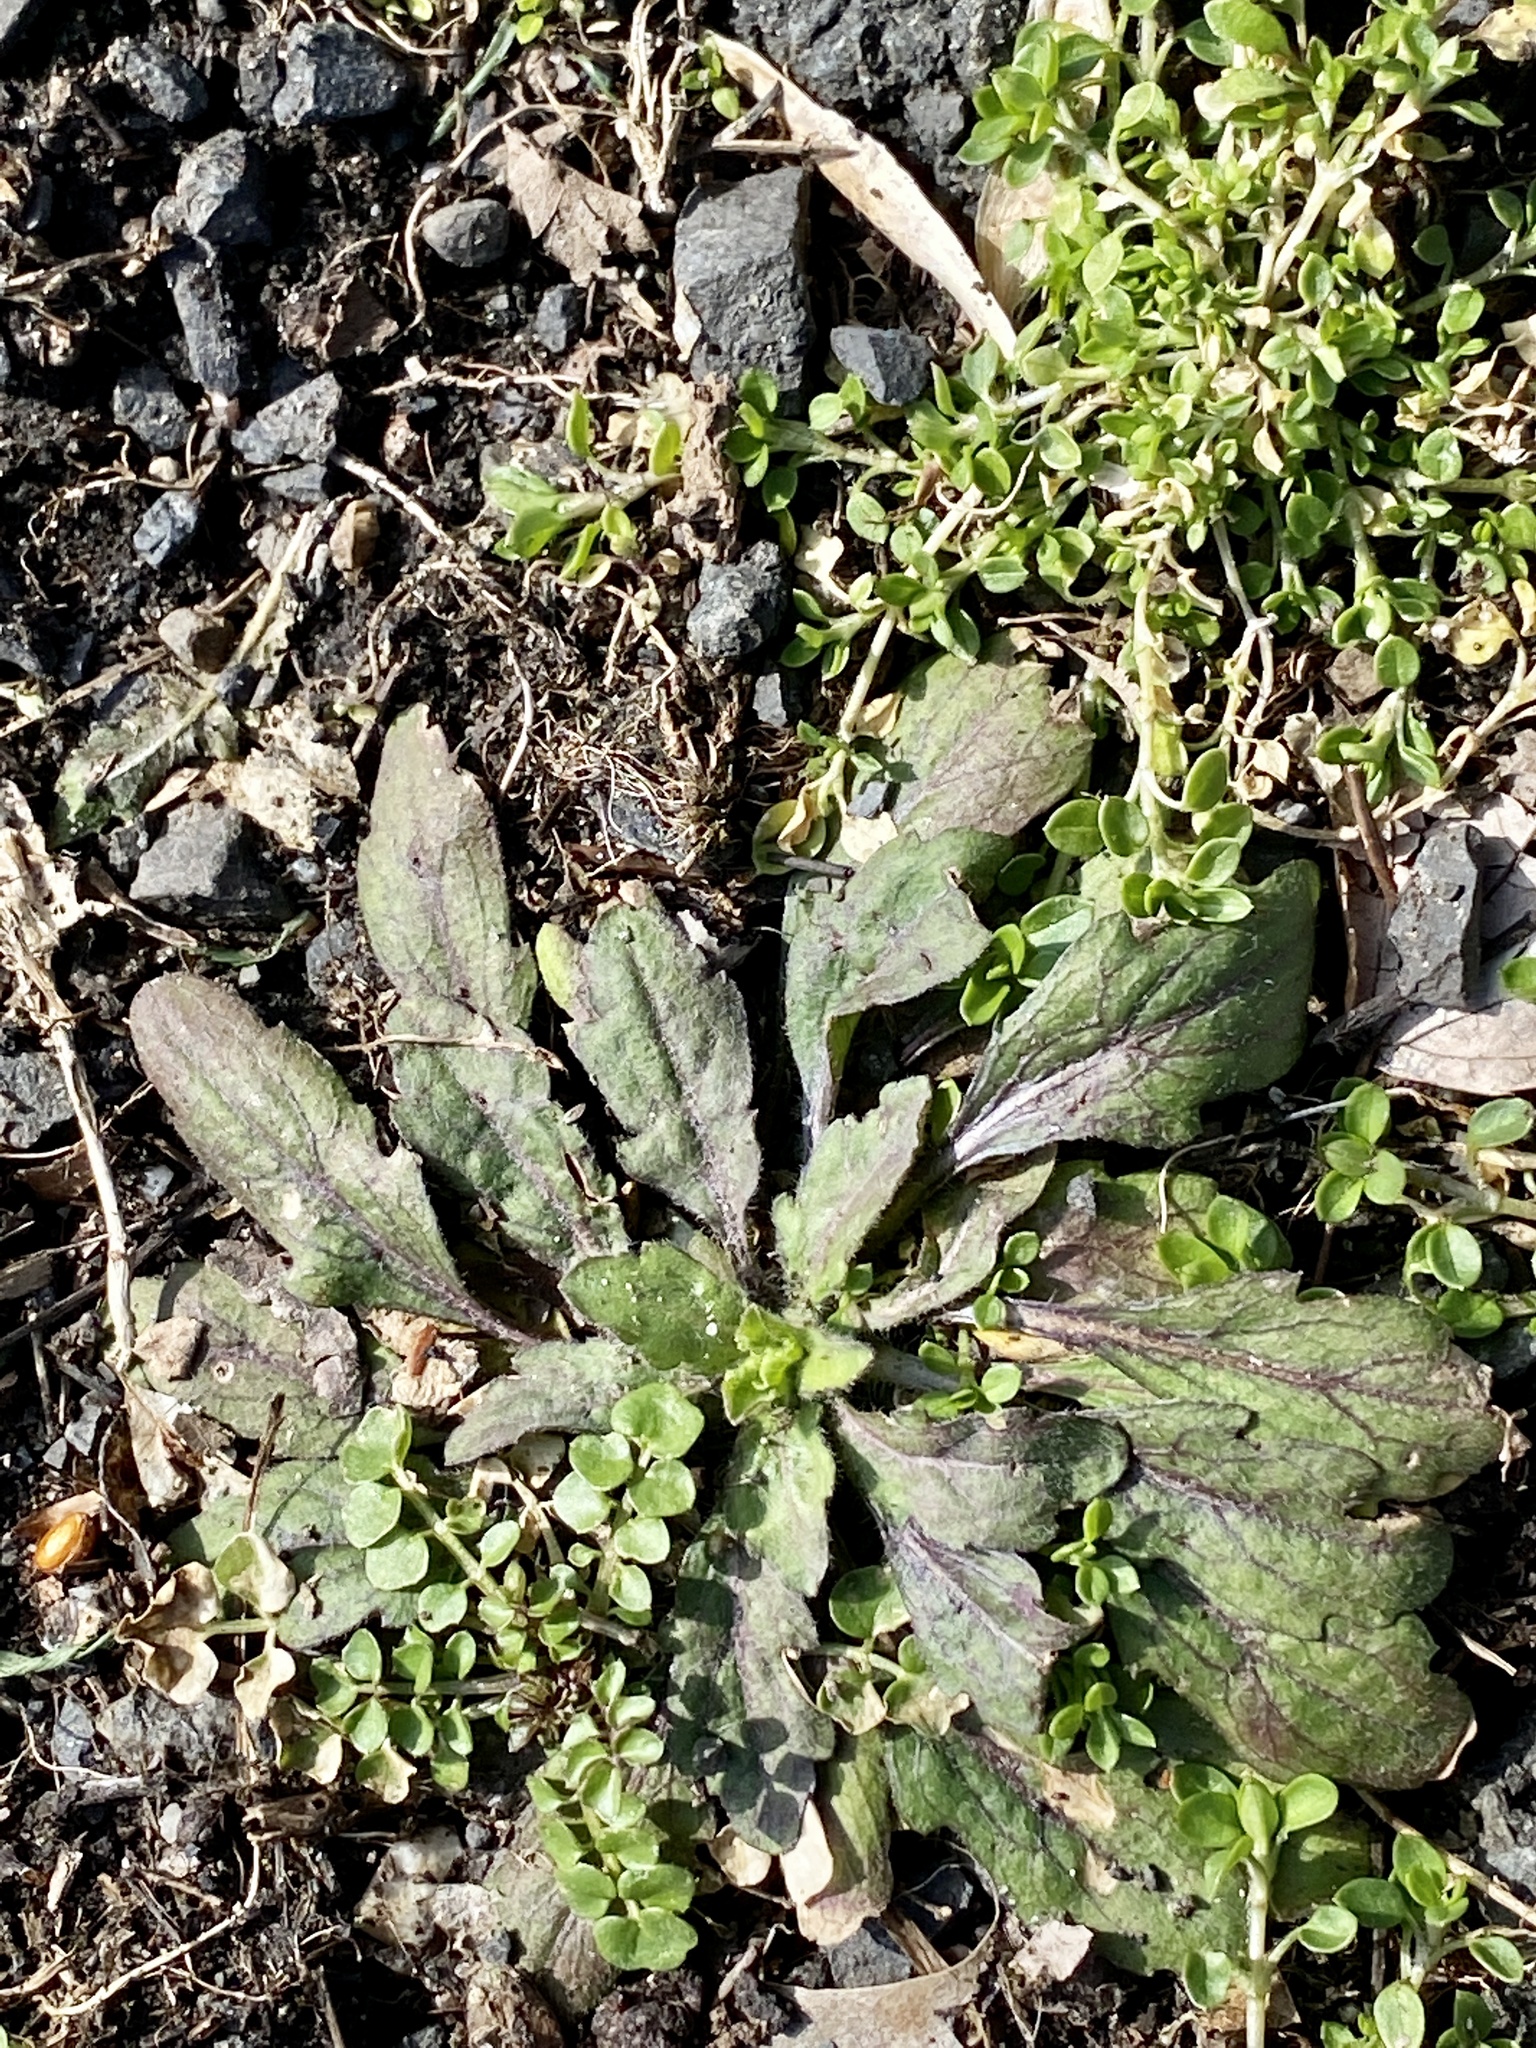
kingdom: Plantae
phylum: Tracheophyta
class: Magnoliopsida
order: Asterales
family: Asteraceae
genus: Erigeron
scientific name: Erigeron canadensis
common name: Canadian fleabane
